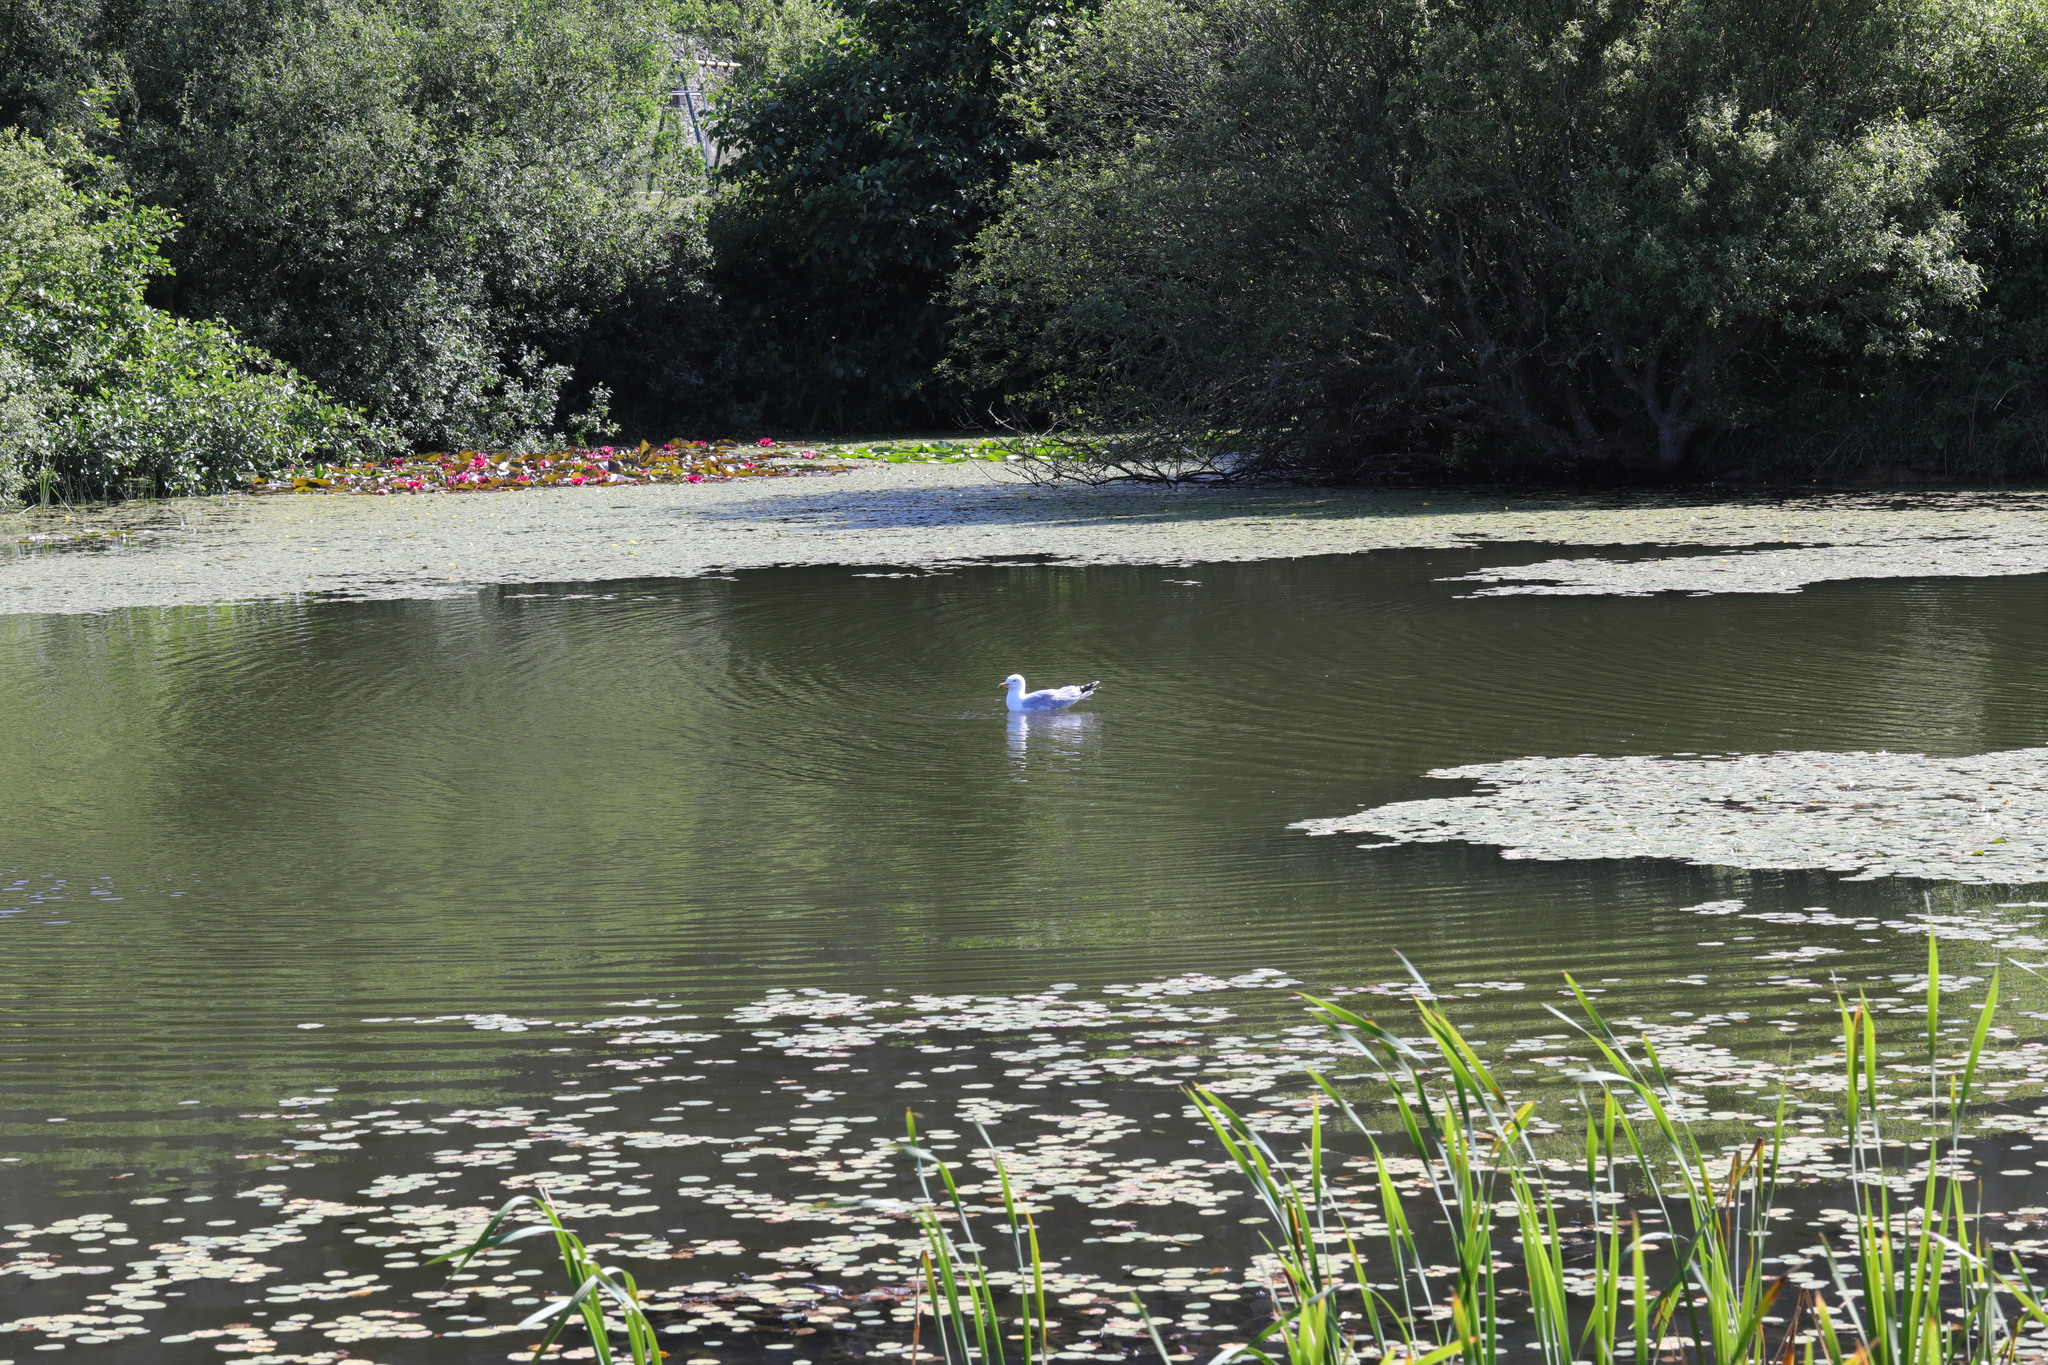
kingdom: Animalia
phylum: Chordata
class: Aves
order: Charadriiformes
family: Laridae
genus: Larus
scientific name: Larus argentatus
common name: Herring gull
